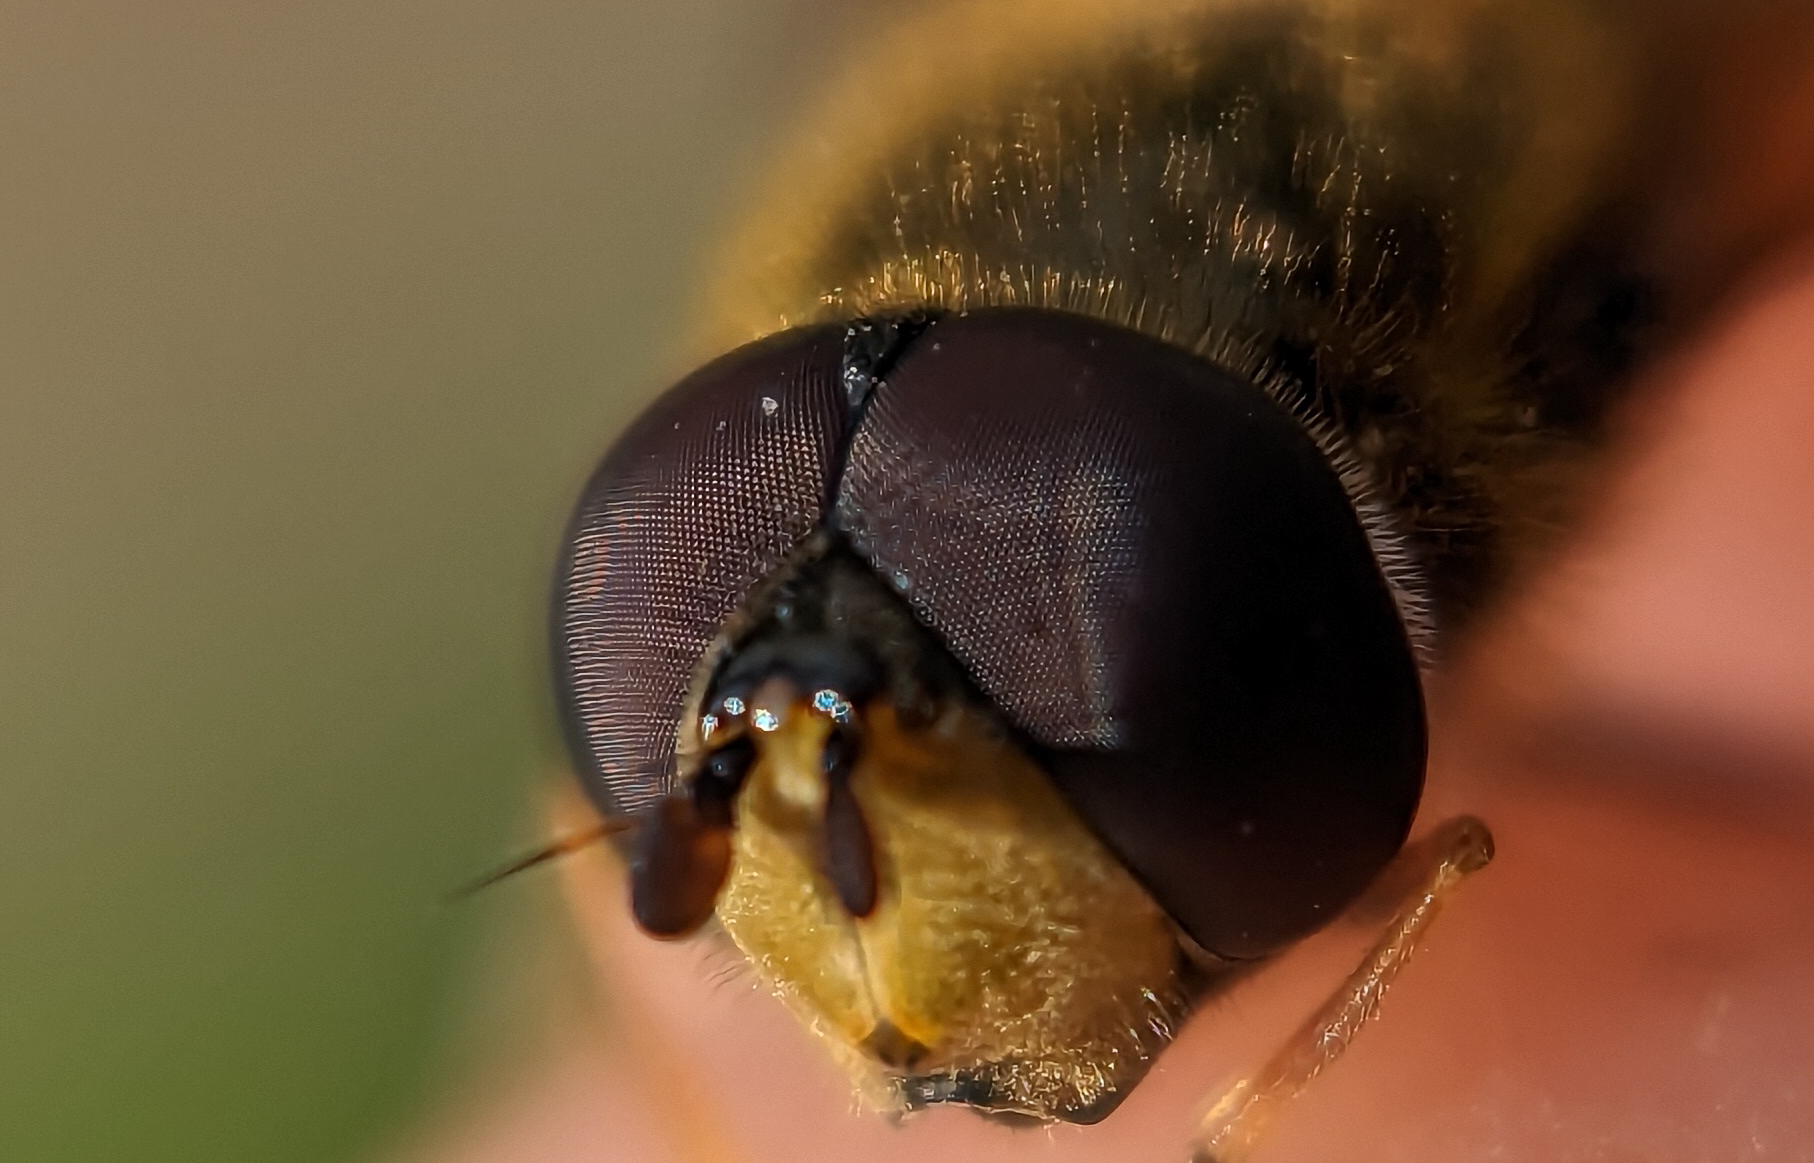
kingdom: Animalia
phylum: Arthropoda
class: Insecta
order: Diptera
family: Syrphidae
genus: Epistrophe
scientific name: Epistrophe eligans
